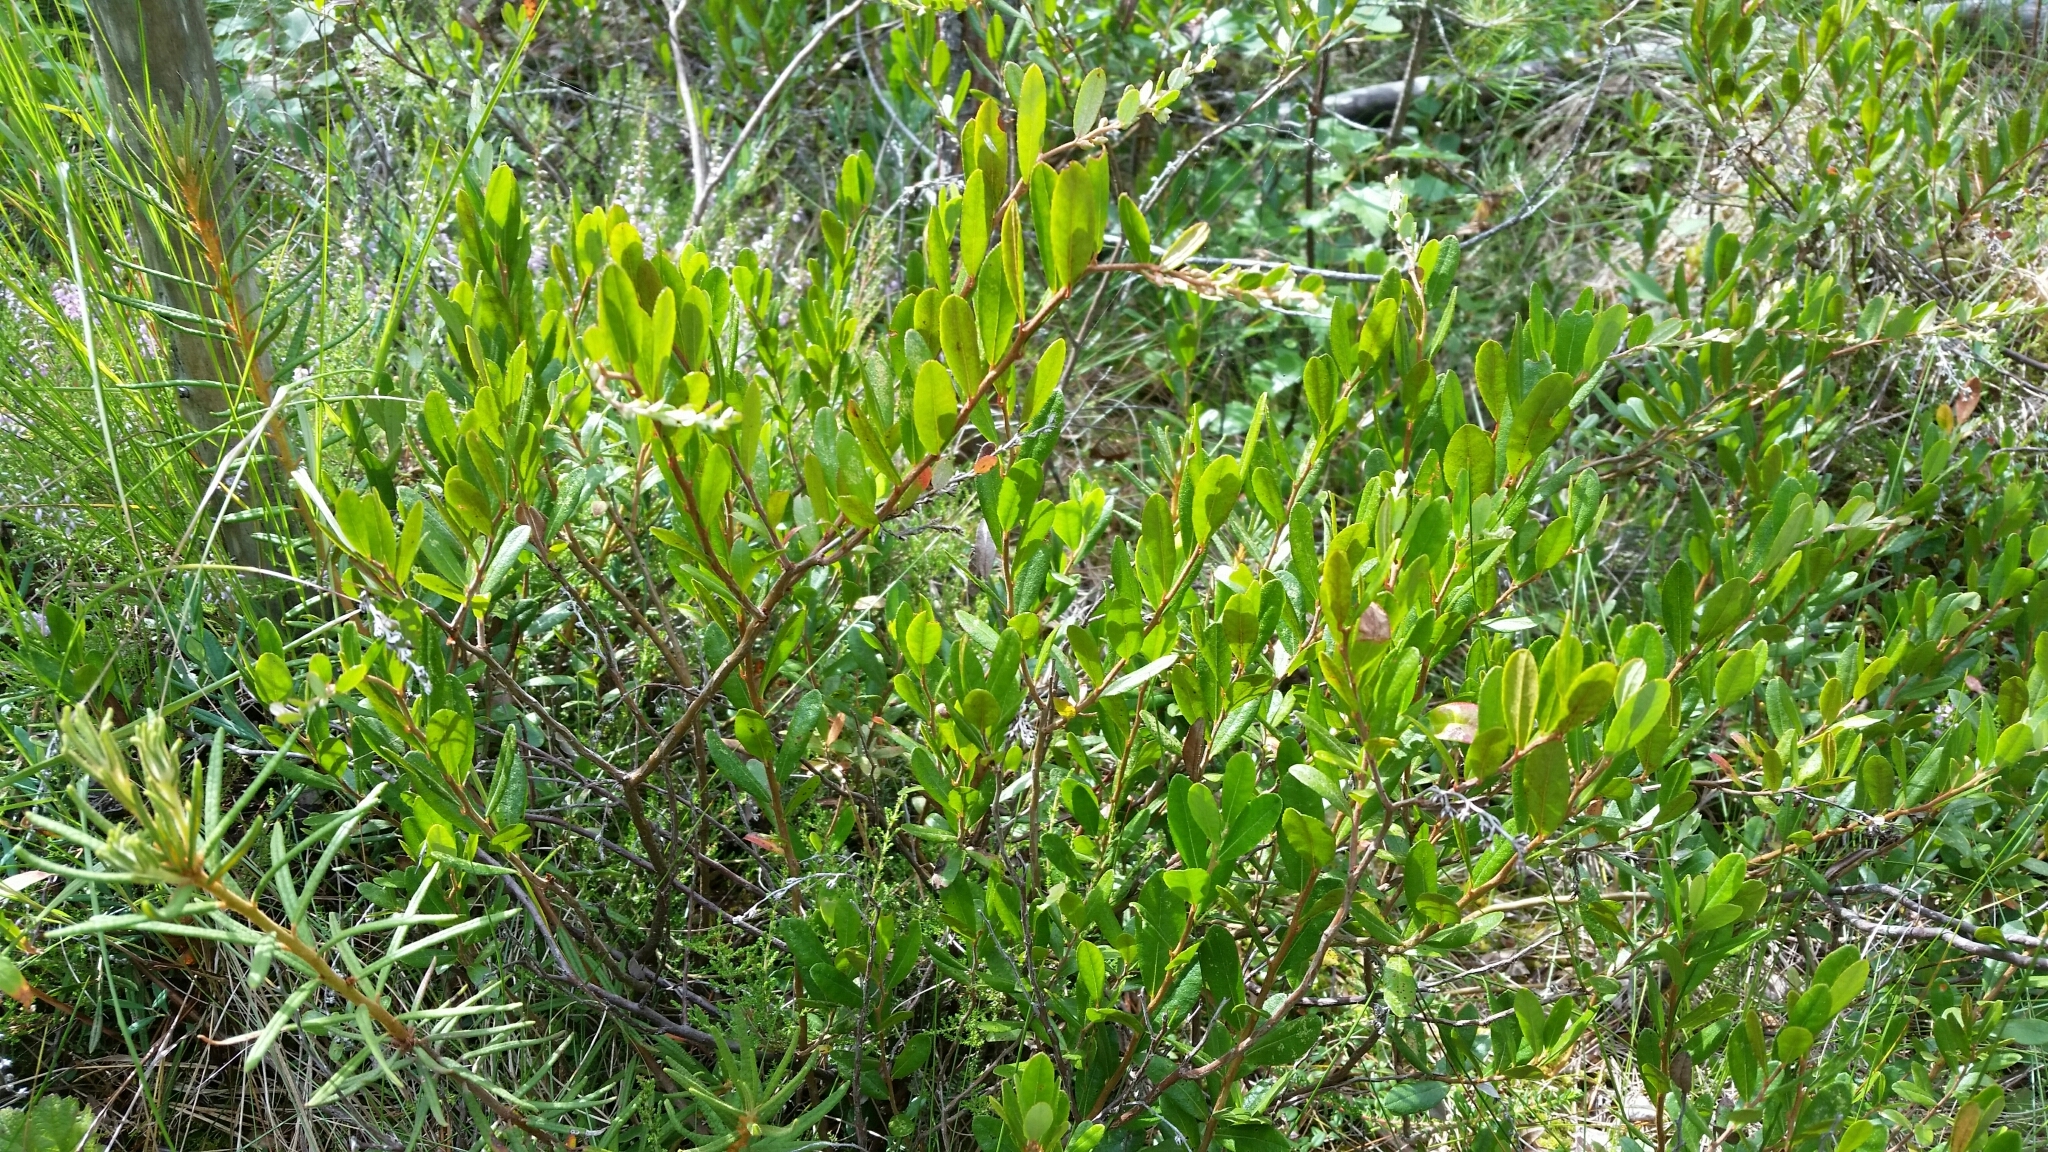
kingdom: Plantae
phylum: Tracheophyta
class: Magnoliopsida
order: Ericales
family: Ericaceae
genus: Chamaedaphne
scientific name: Chamaedaphne calyculata
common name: Leatherleaf
